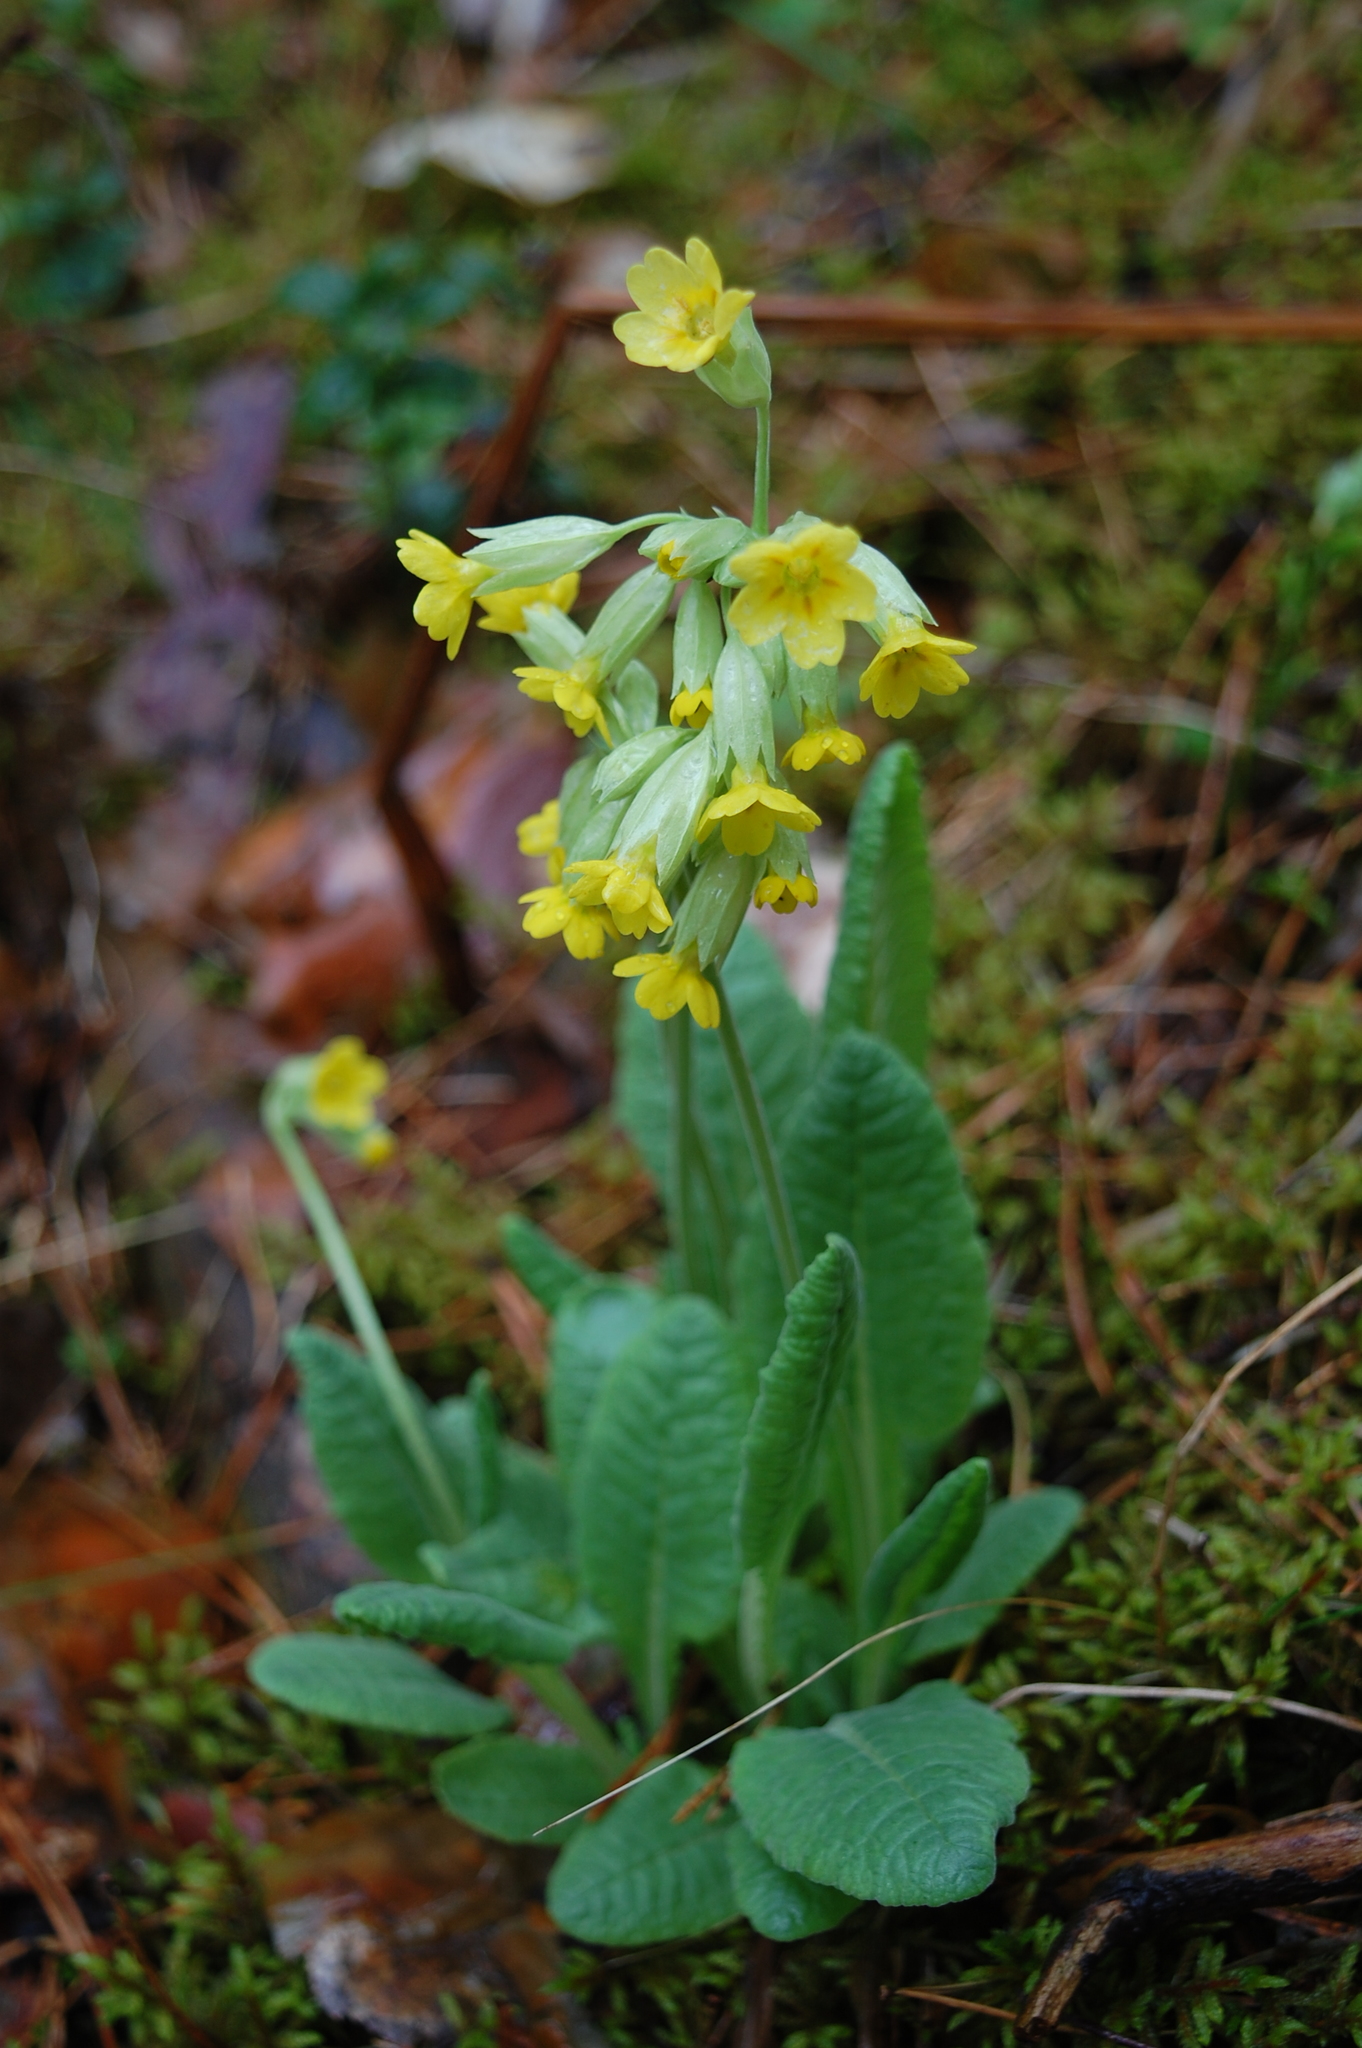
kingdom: Plantae
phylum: Tracheophyta
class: Magnoliopsida
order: Ericales
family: Primulaceae
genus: Primula
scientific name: Primula veris
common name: Cowslip
